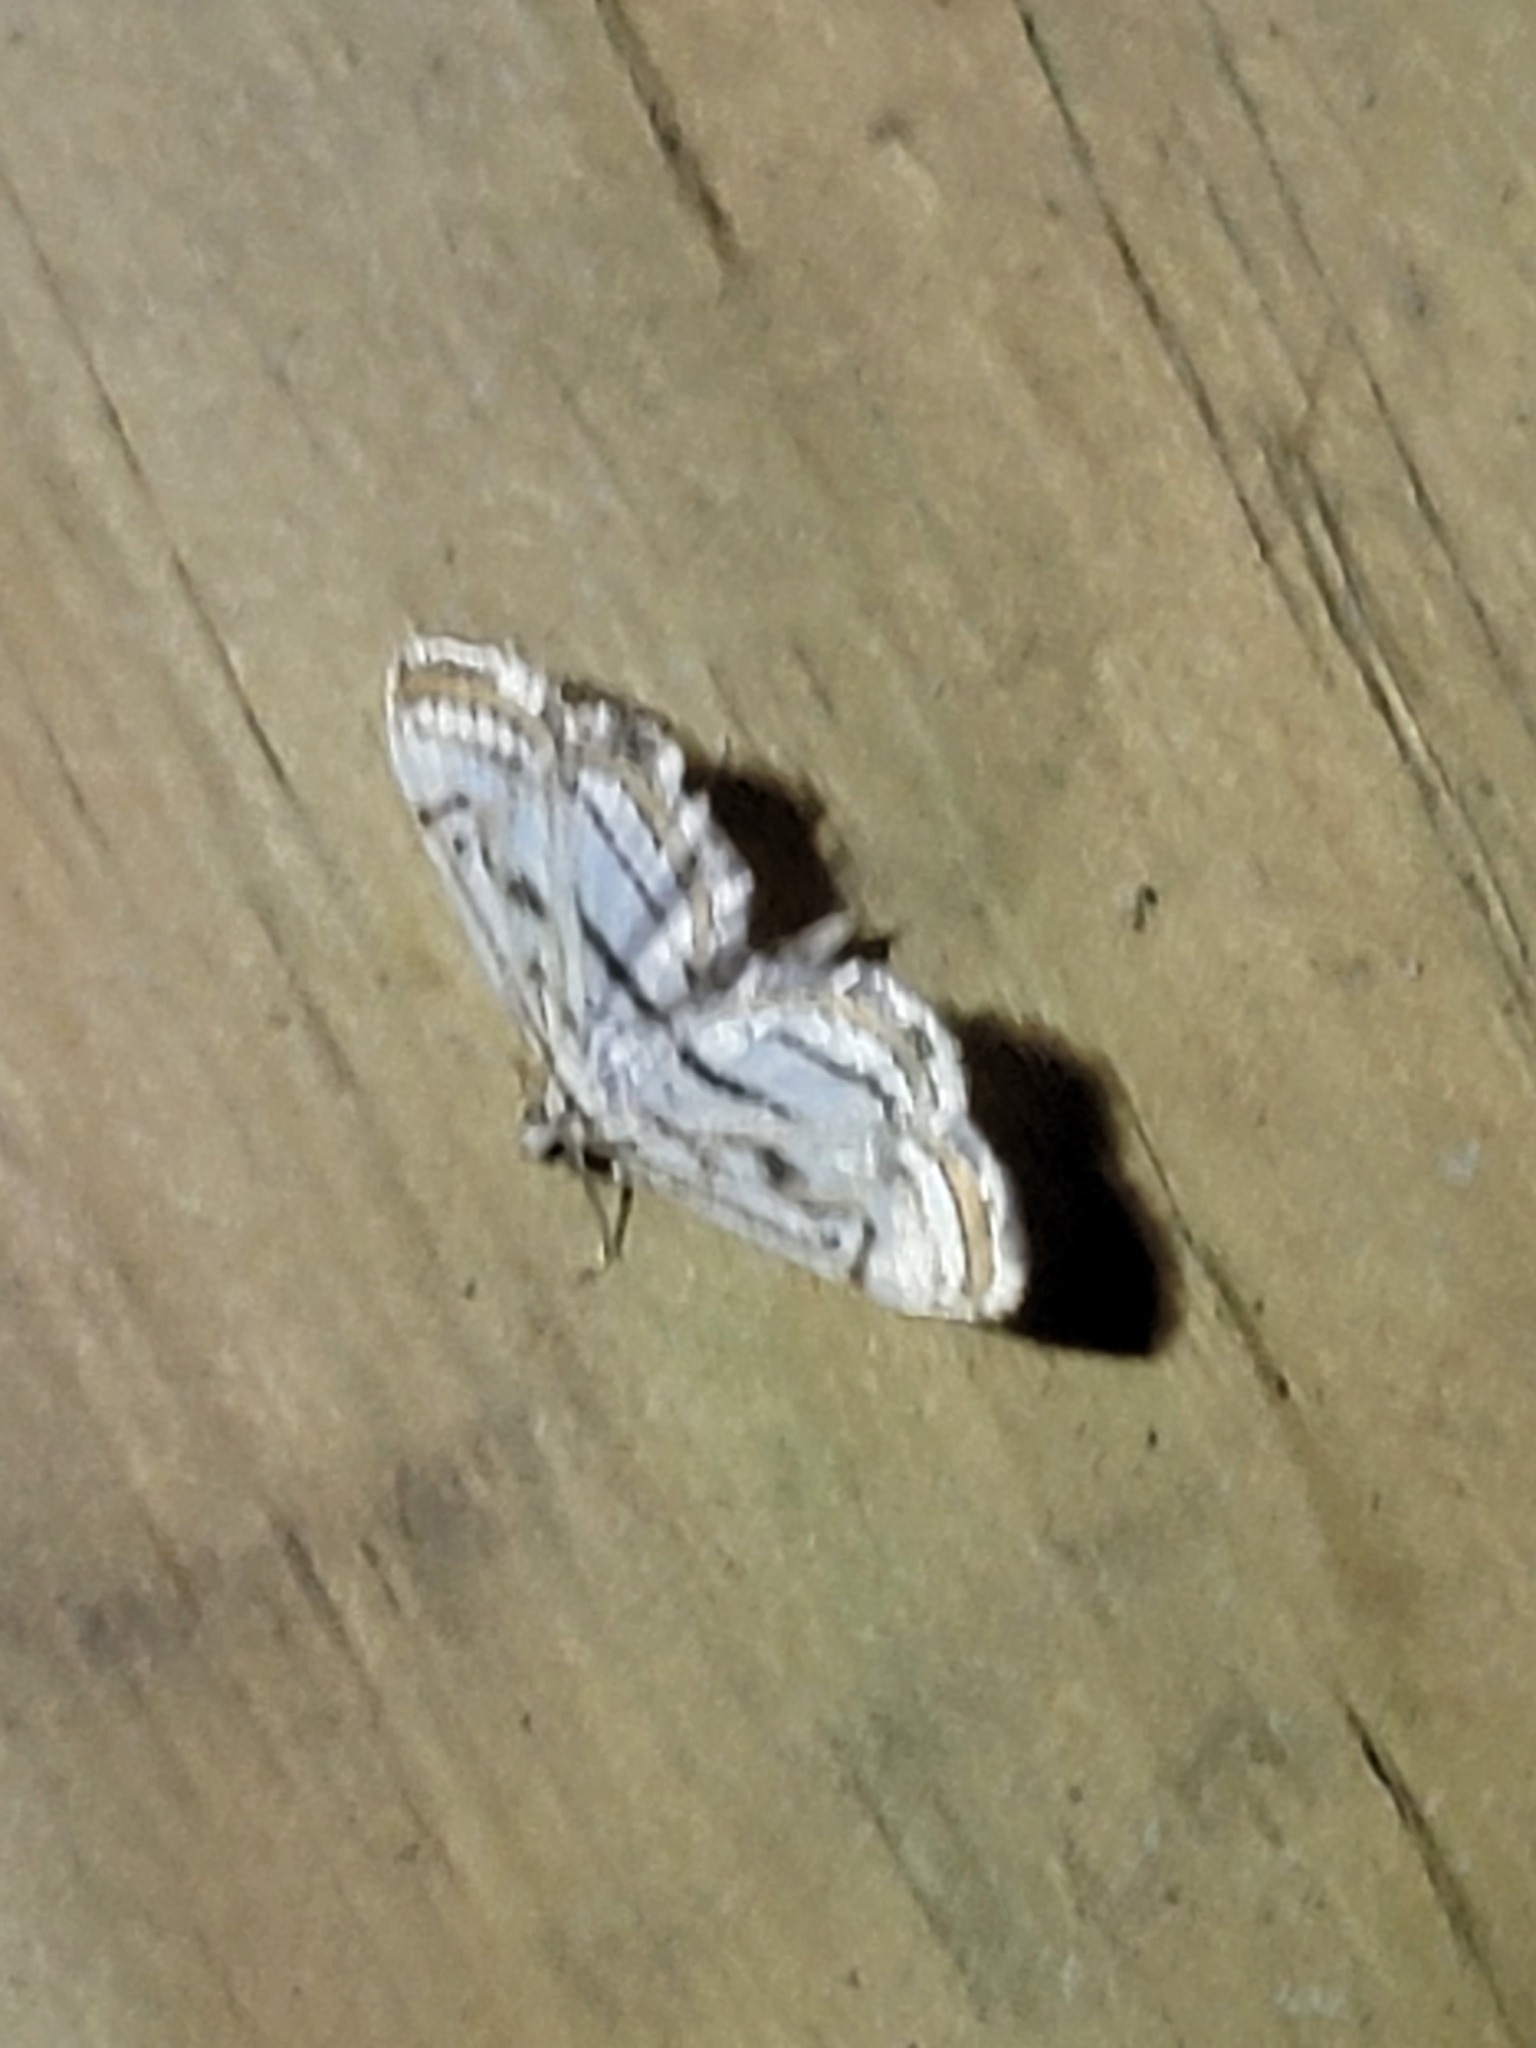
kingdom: Animalia
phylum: Arthropoda
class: Insecta
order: Lepidoptera
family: Crambidae
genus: Parapoynx
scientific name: Parapoynx badiusalis
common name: Chestnut-marked pondweed moth
